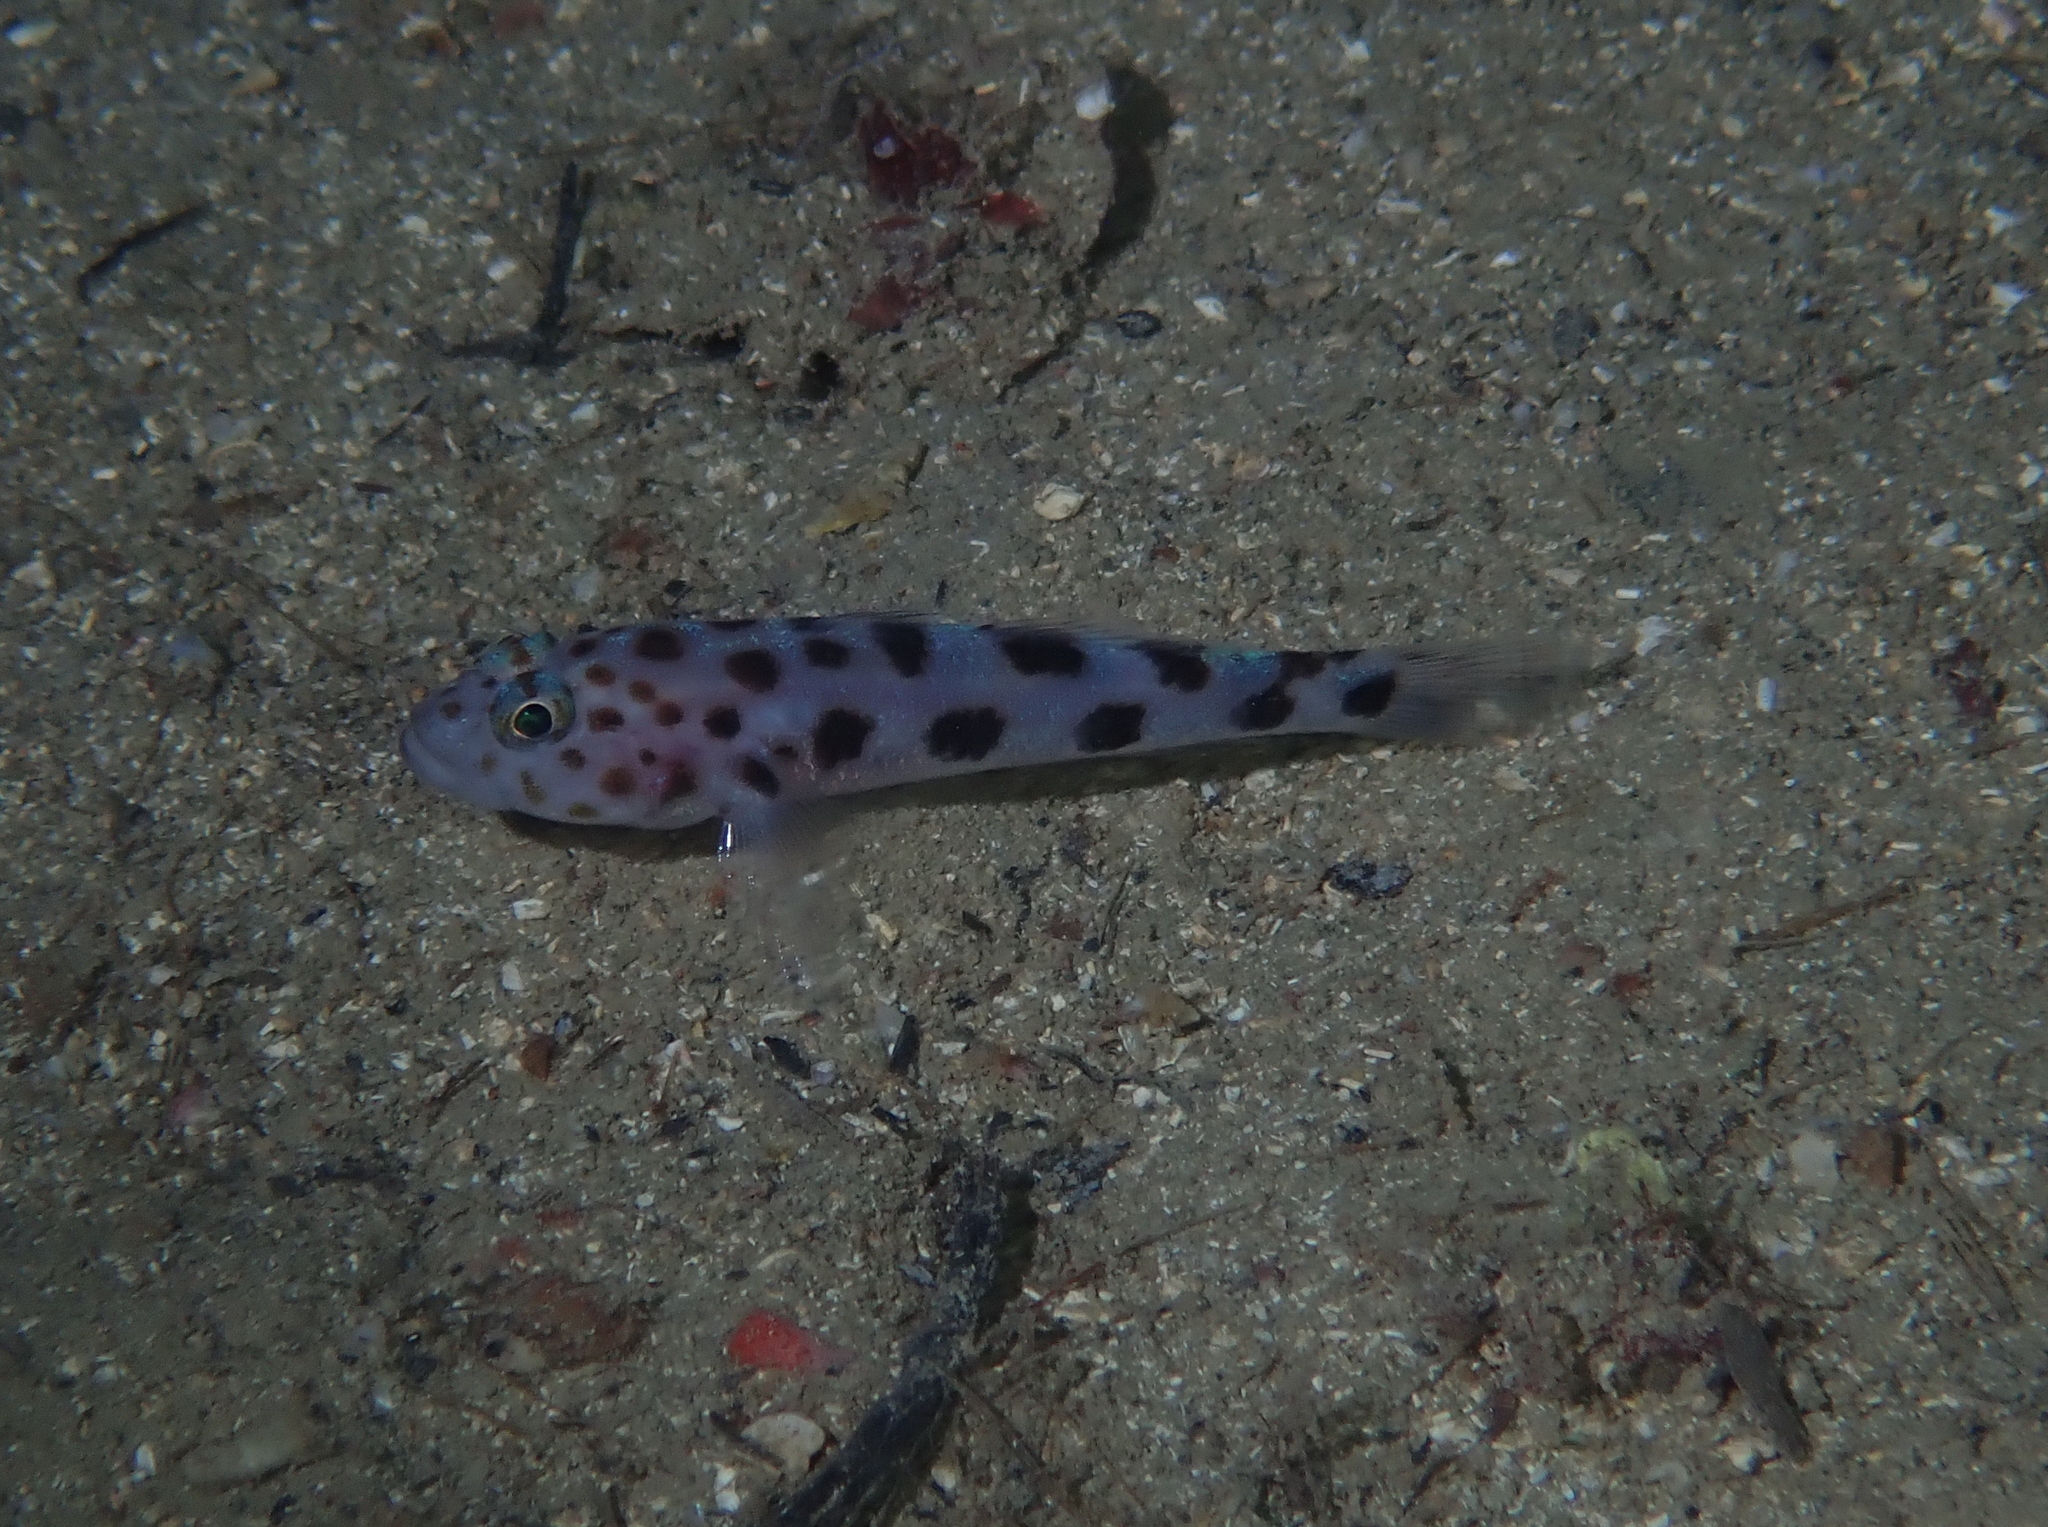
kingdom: Animalia
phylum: Chordata
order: Perciformes
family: Gobiidae
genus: Thorogobius
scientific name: Thorogobius ephippiatus
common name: Leopard-spotted goby
